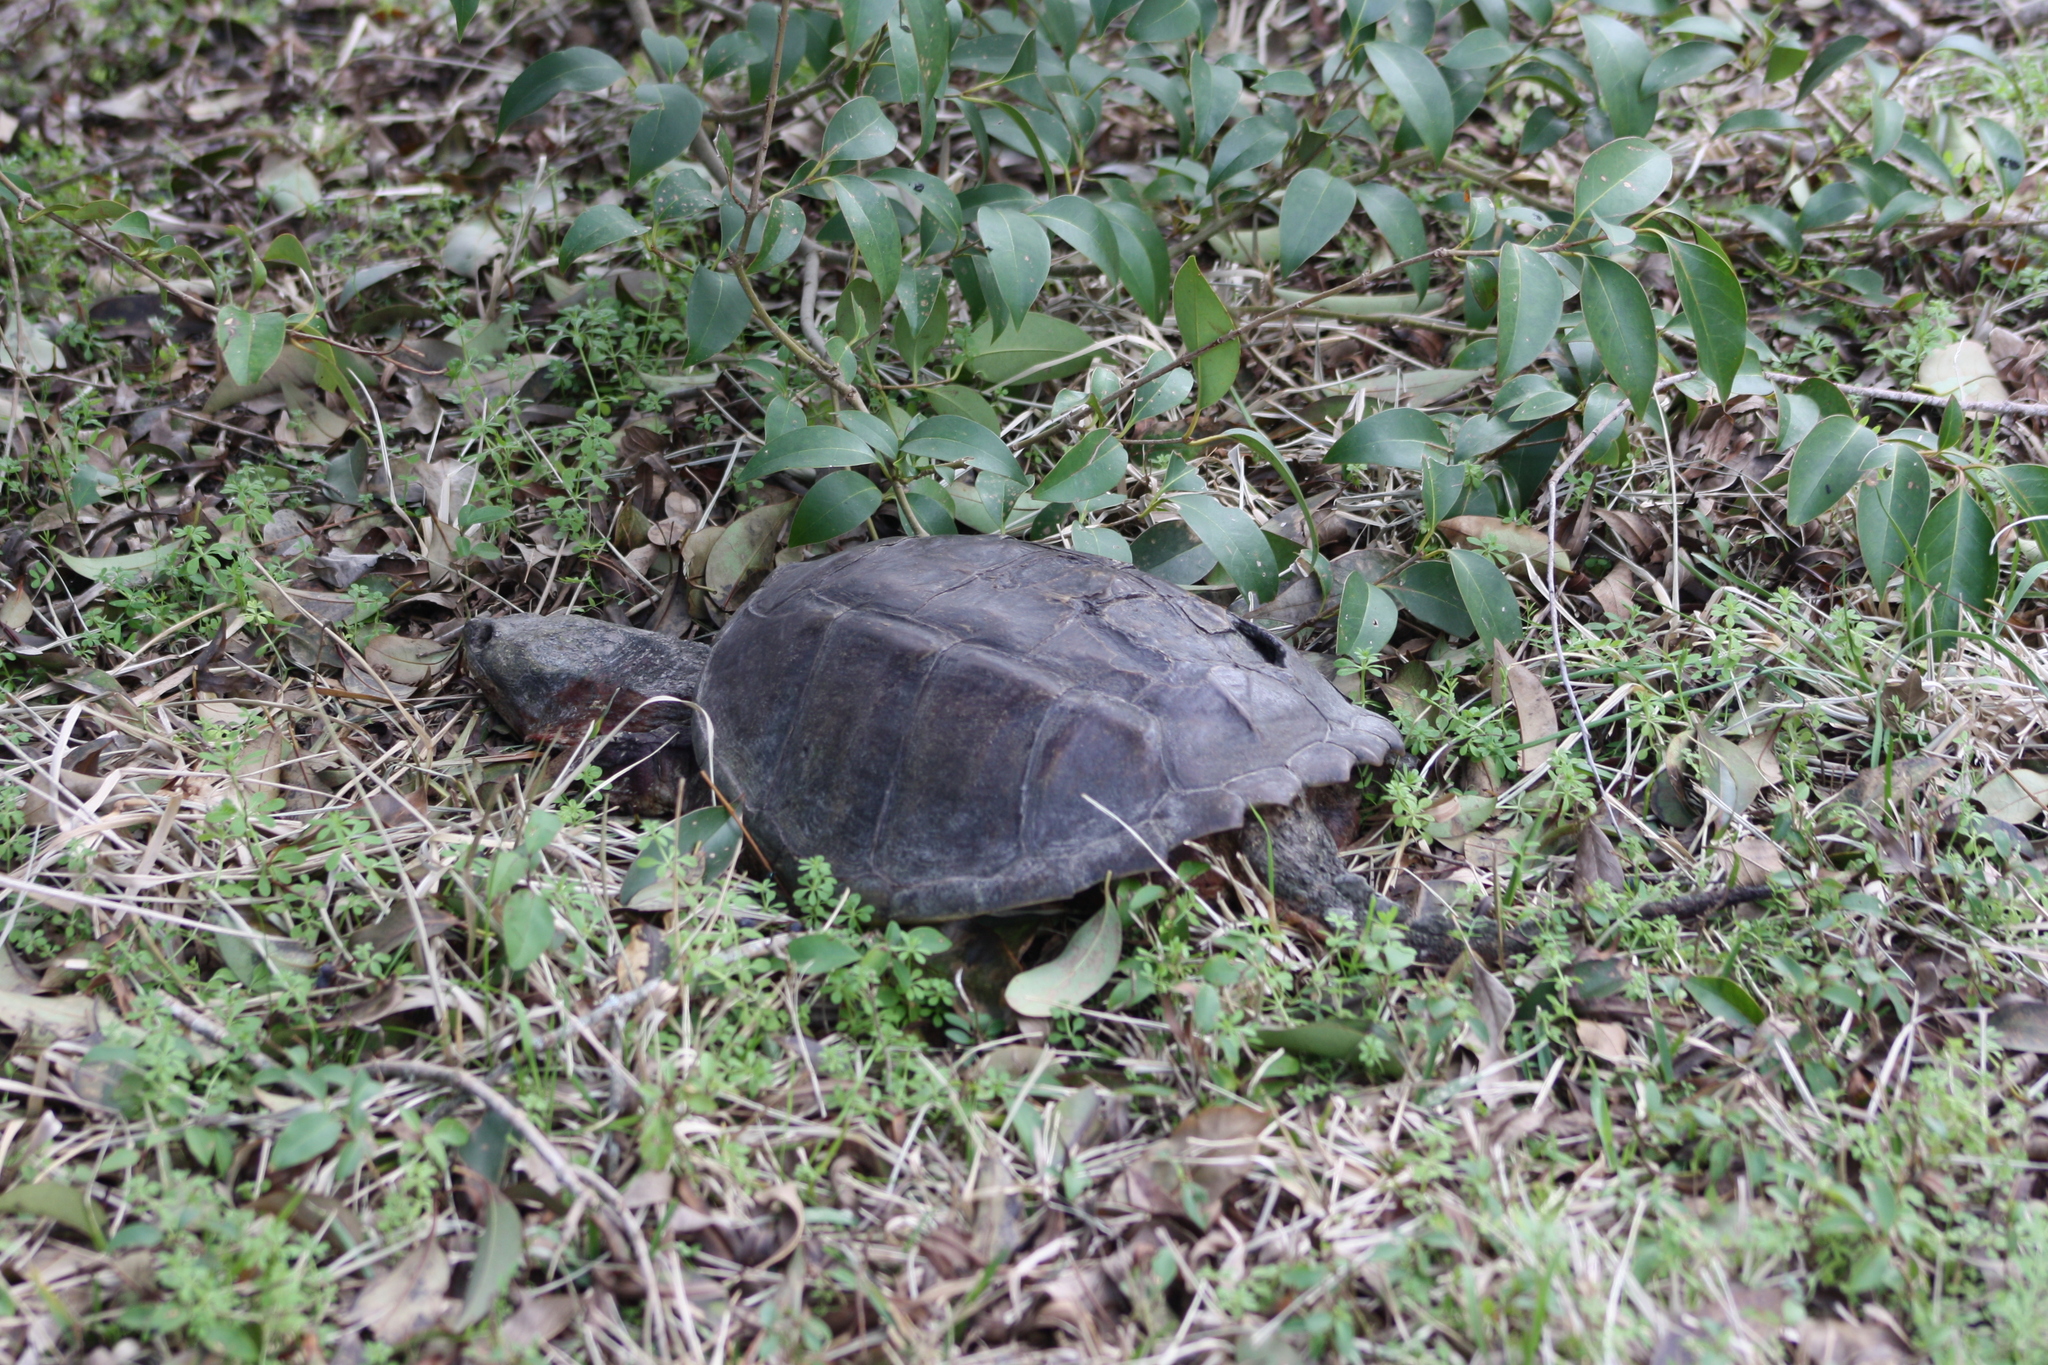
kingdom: Animalia
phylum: Chordata
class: Testudines
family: Chelydridae
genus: Chelydra
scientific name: Chelydra serpentina
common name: Common snapping turtle
